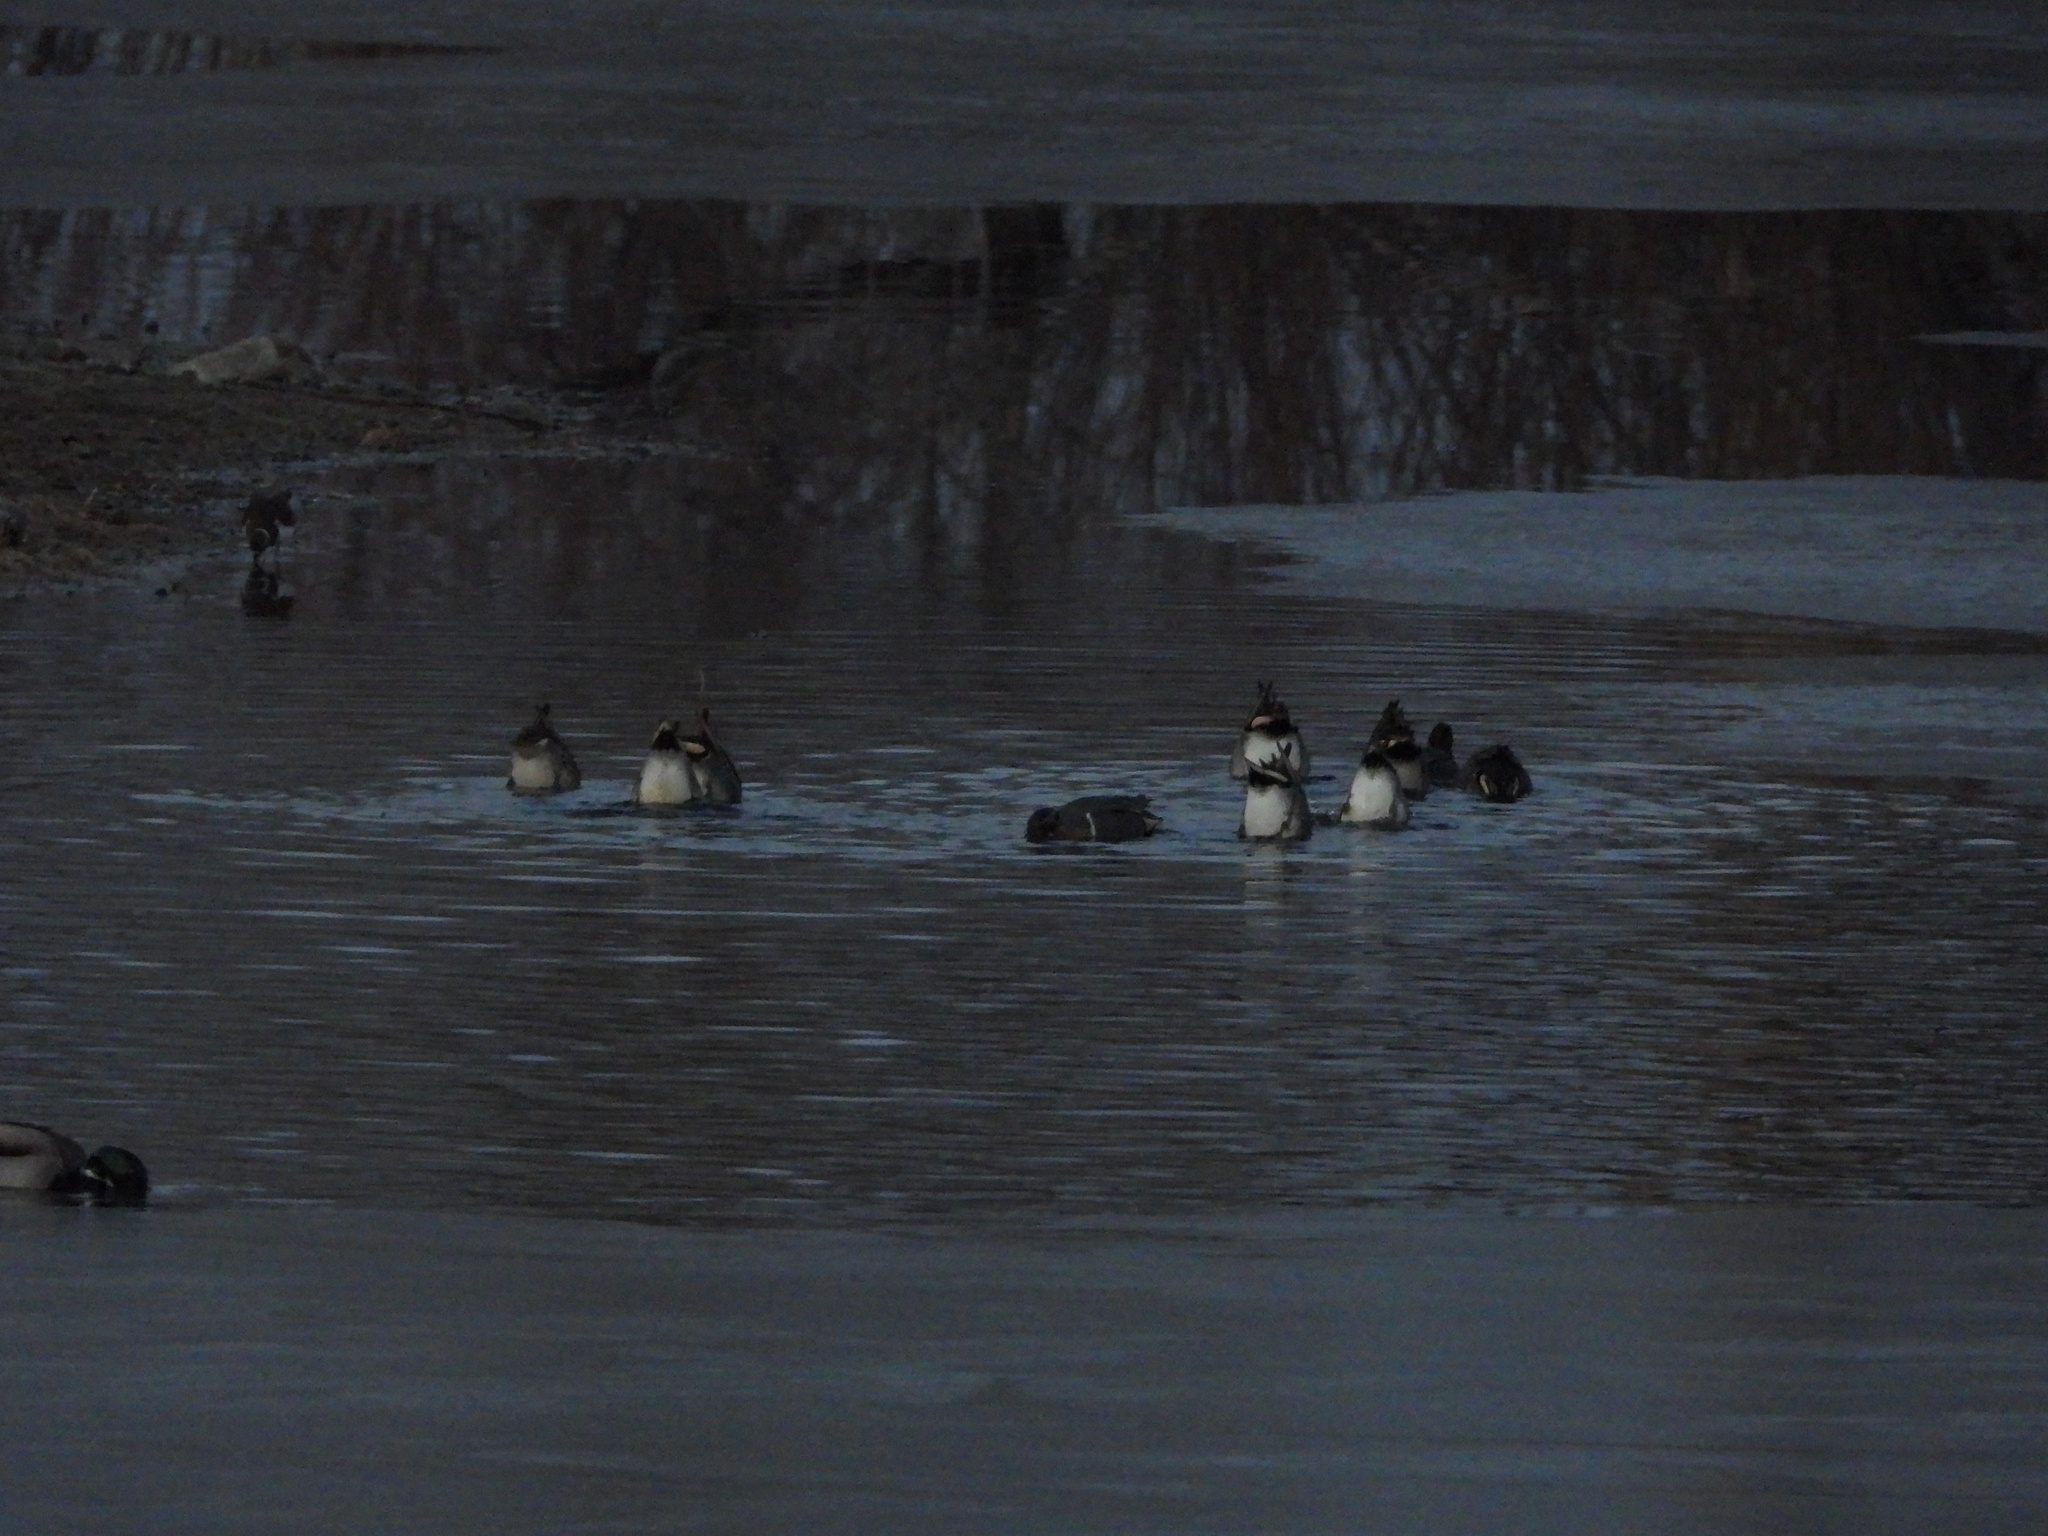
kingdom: Animalia
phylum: Chordata
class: Aves
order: Anseriformes
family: Anatidae
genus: Anas
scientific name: Anas crecca
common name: Eurasian teal
